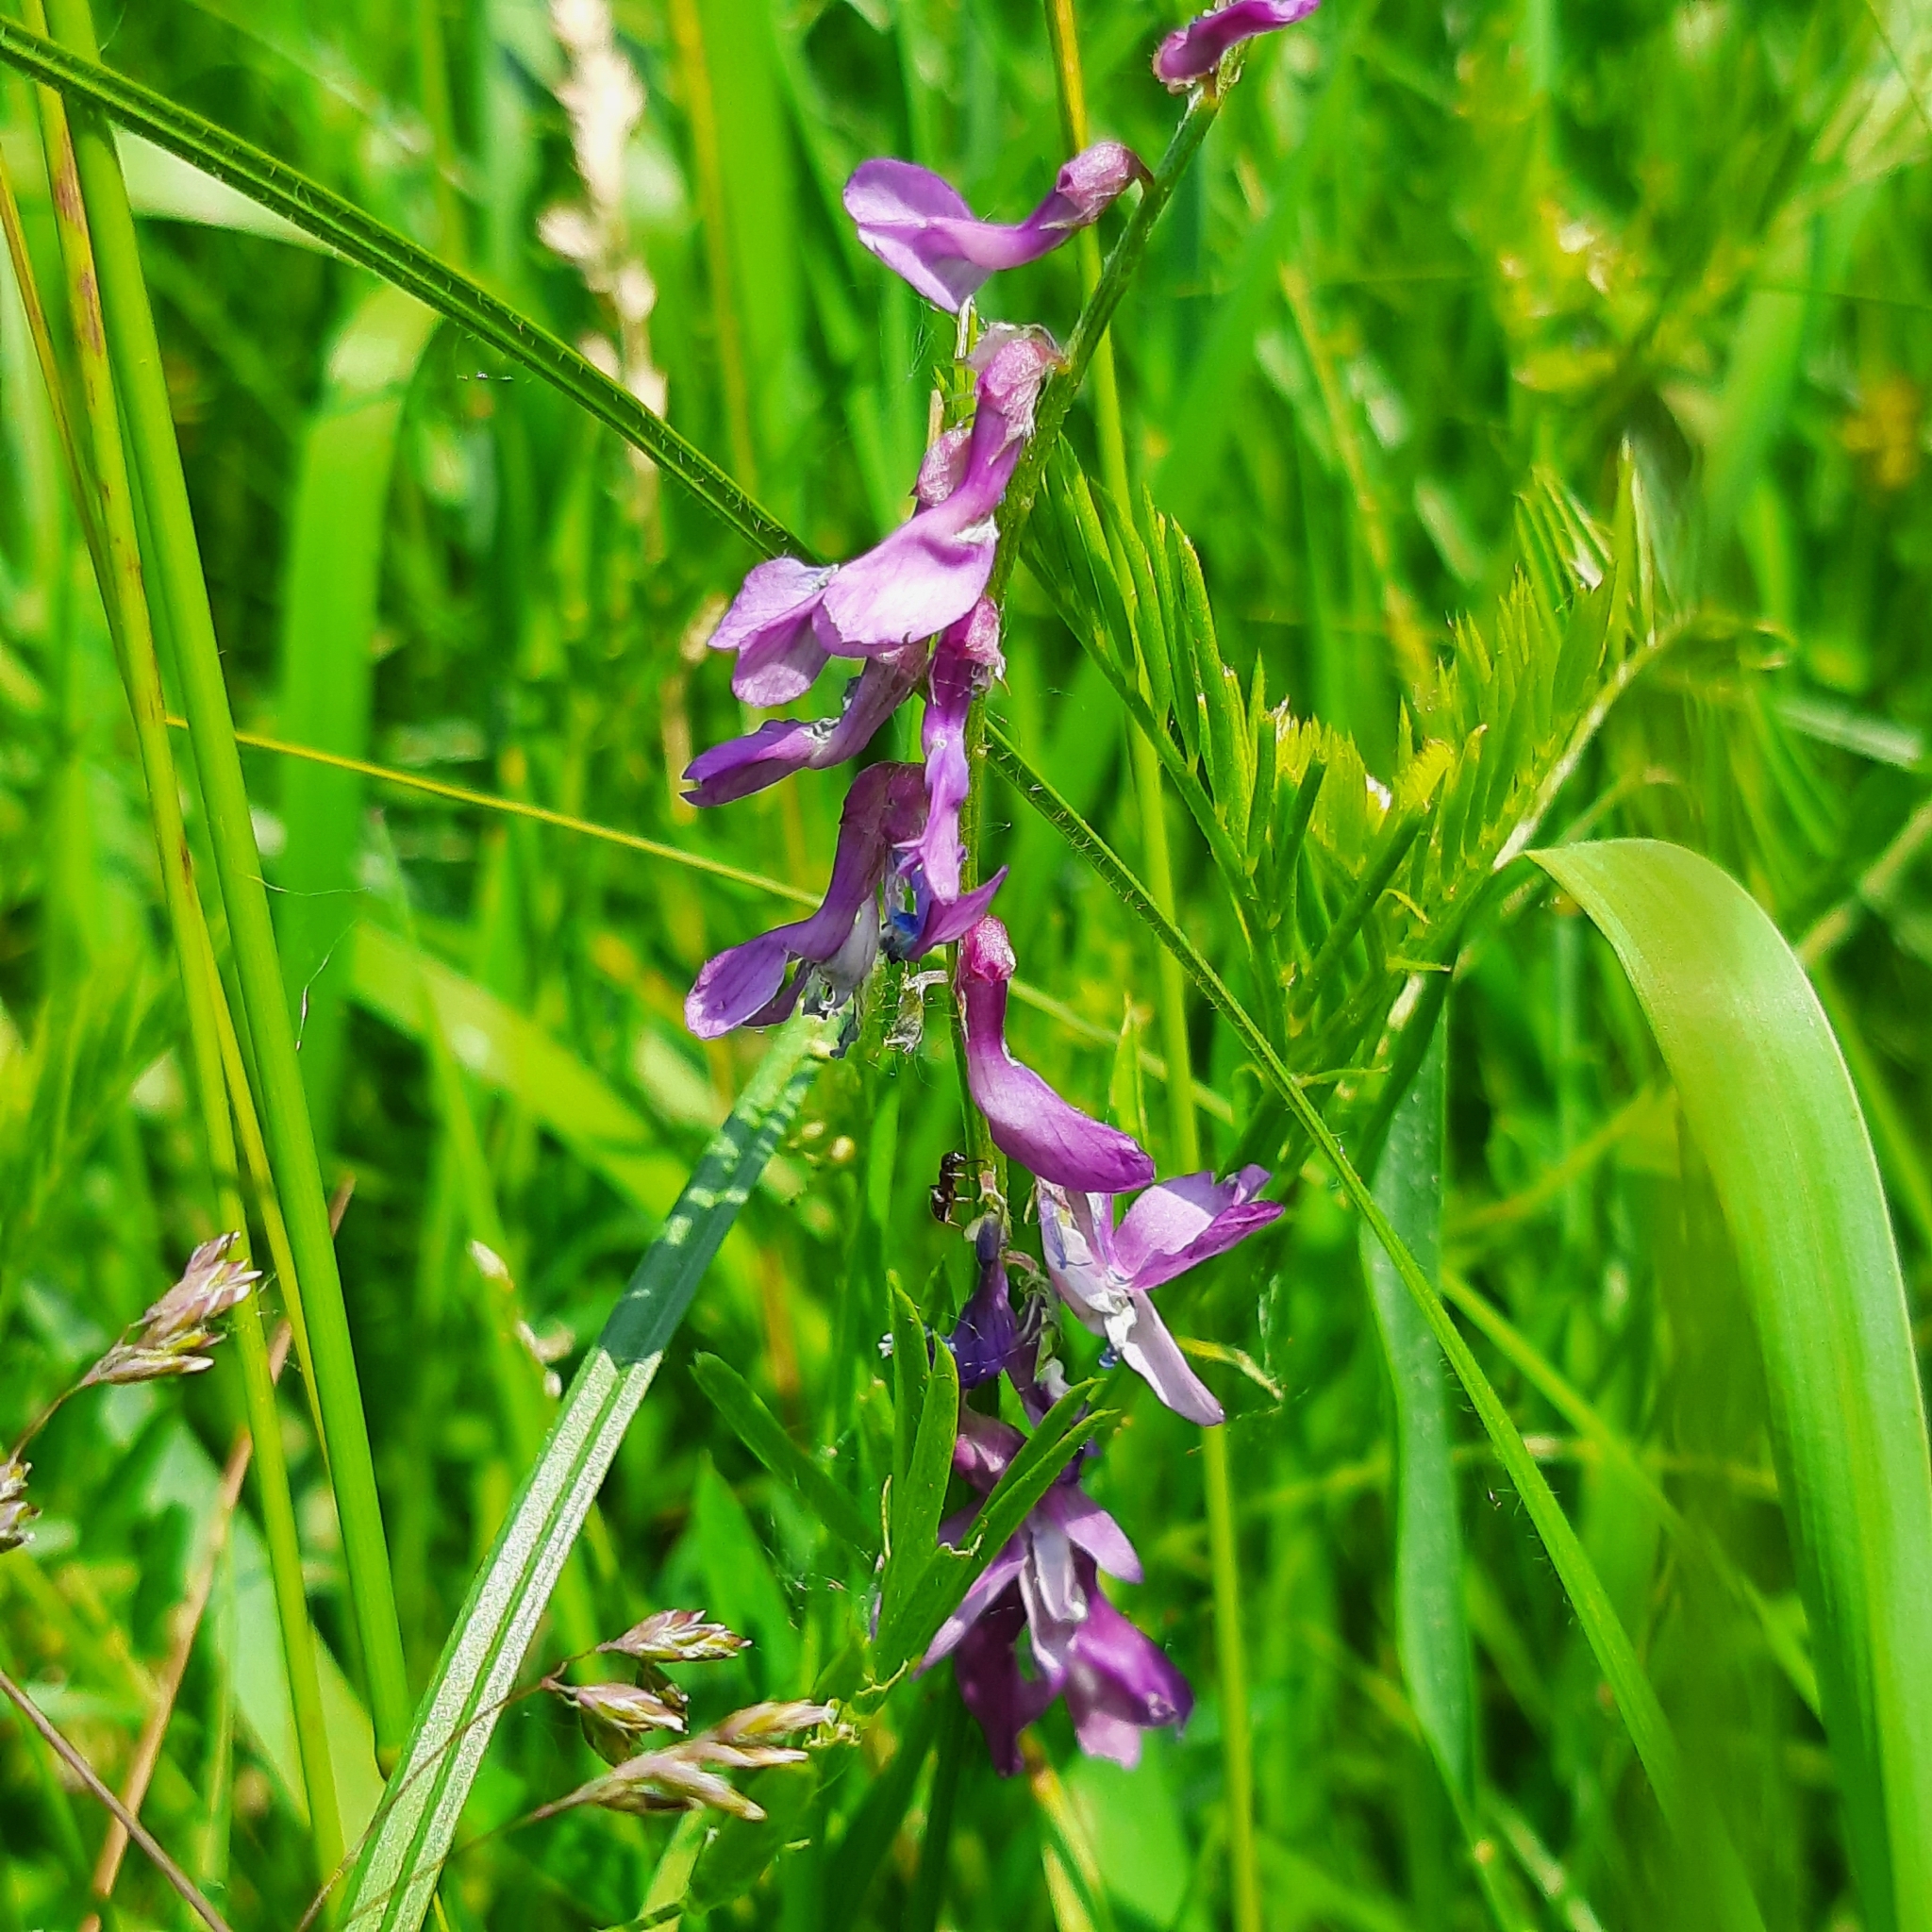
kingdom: Plantae
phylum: Tracheophyta
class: Magnoliopsida
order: Fabales
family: Fabaceae
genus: Vicia
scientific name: Vicia tenuifolia
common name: Fine-leaved vetch
